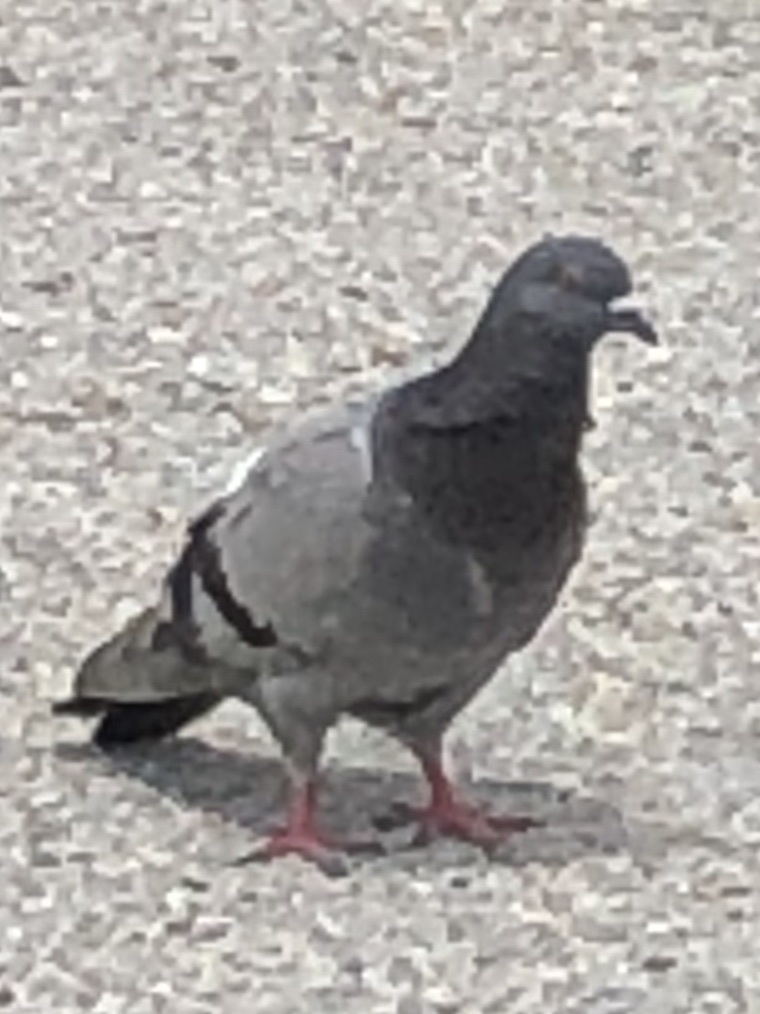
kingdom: Animalia
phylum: Chordata
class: Aves
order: Columbiformes
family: Columbidae
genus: Columba
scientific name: Columba livia
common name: Rock pigeon
